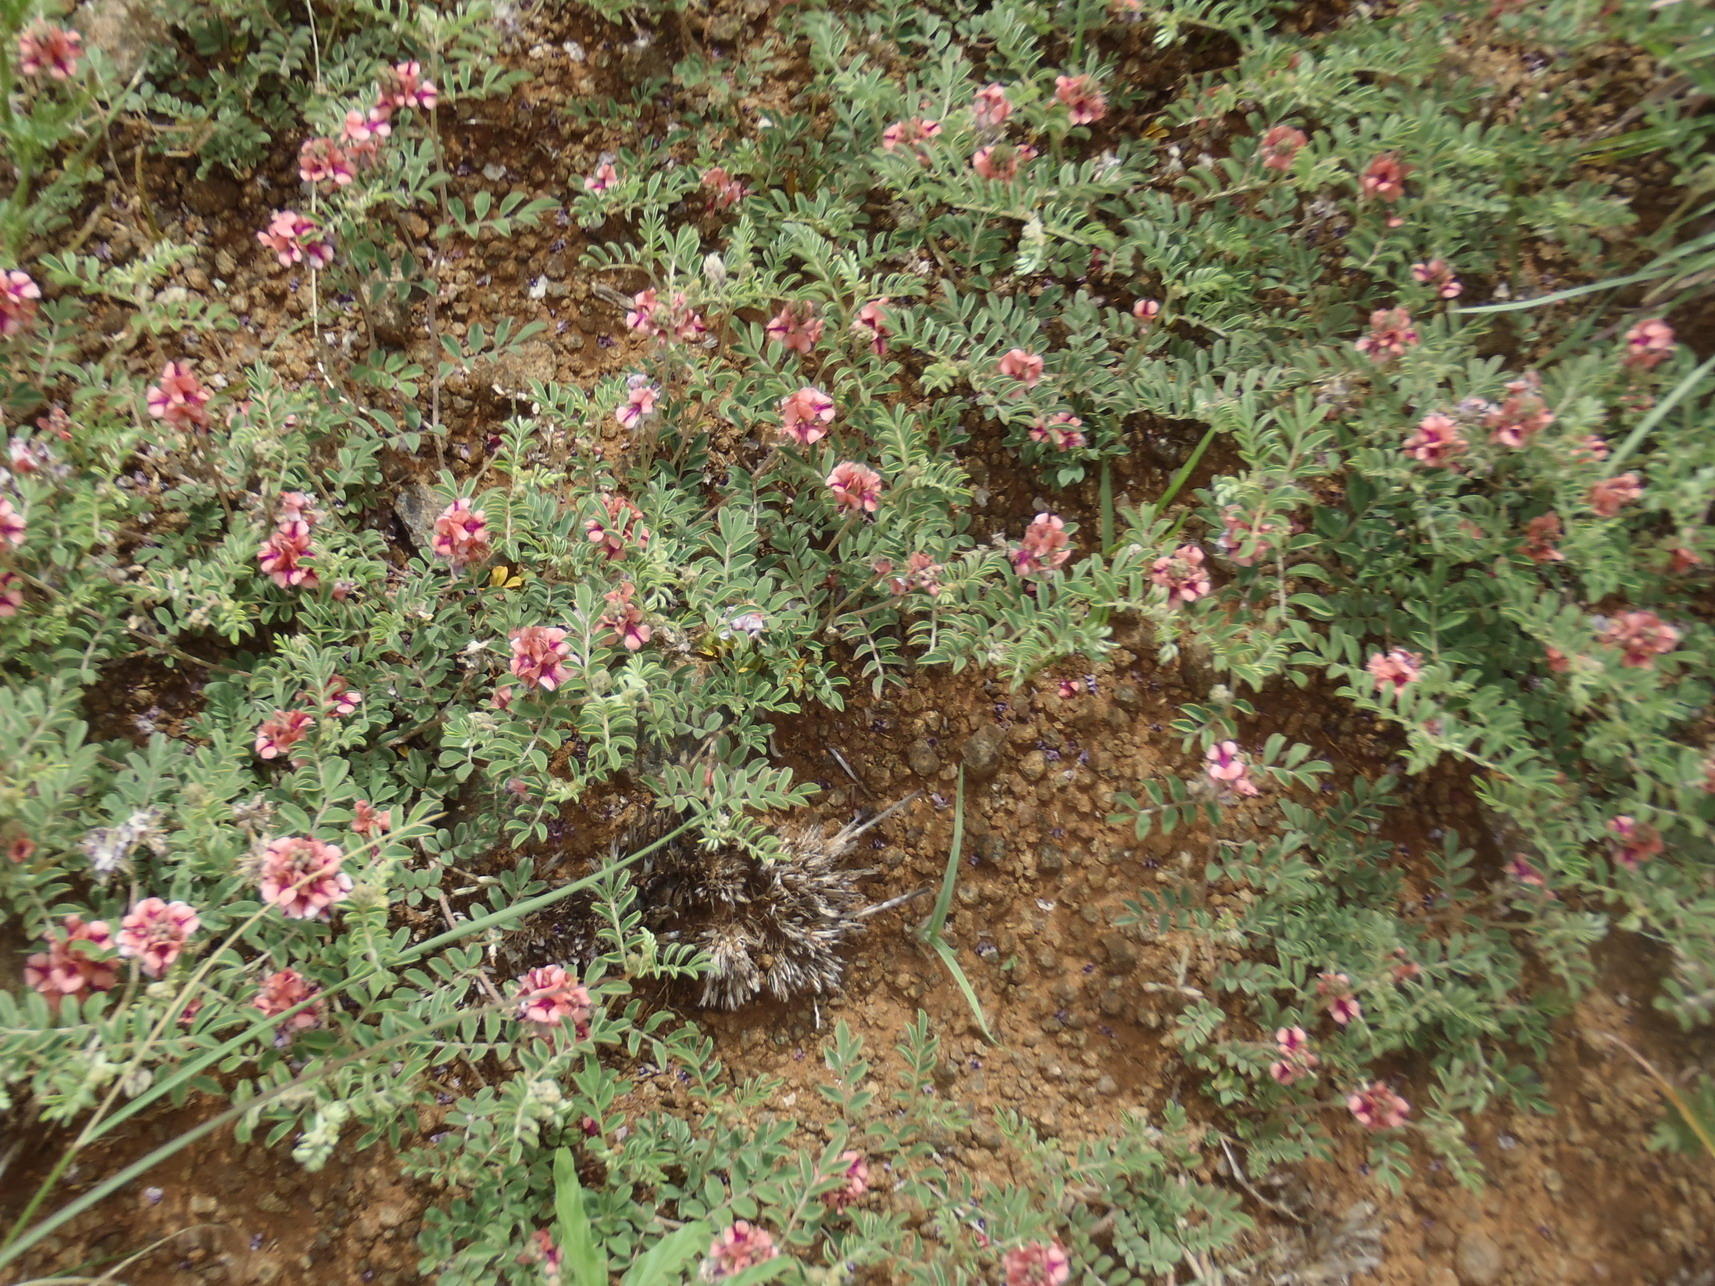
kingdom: Plantae
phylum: Tracheophyta
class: Magnoliopsida
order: Fabales
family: Fabaceae
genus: Indigofera
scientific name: Indigofera alternans
